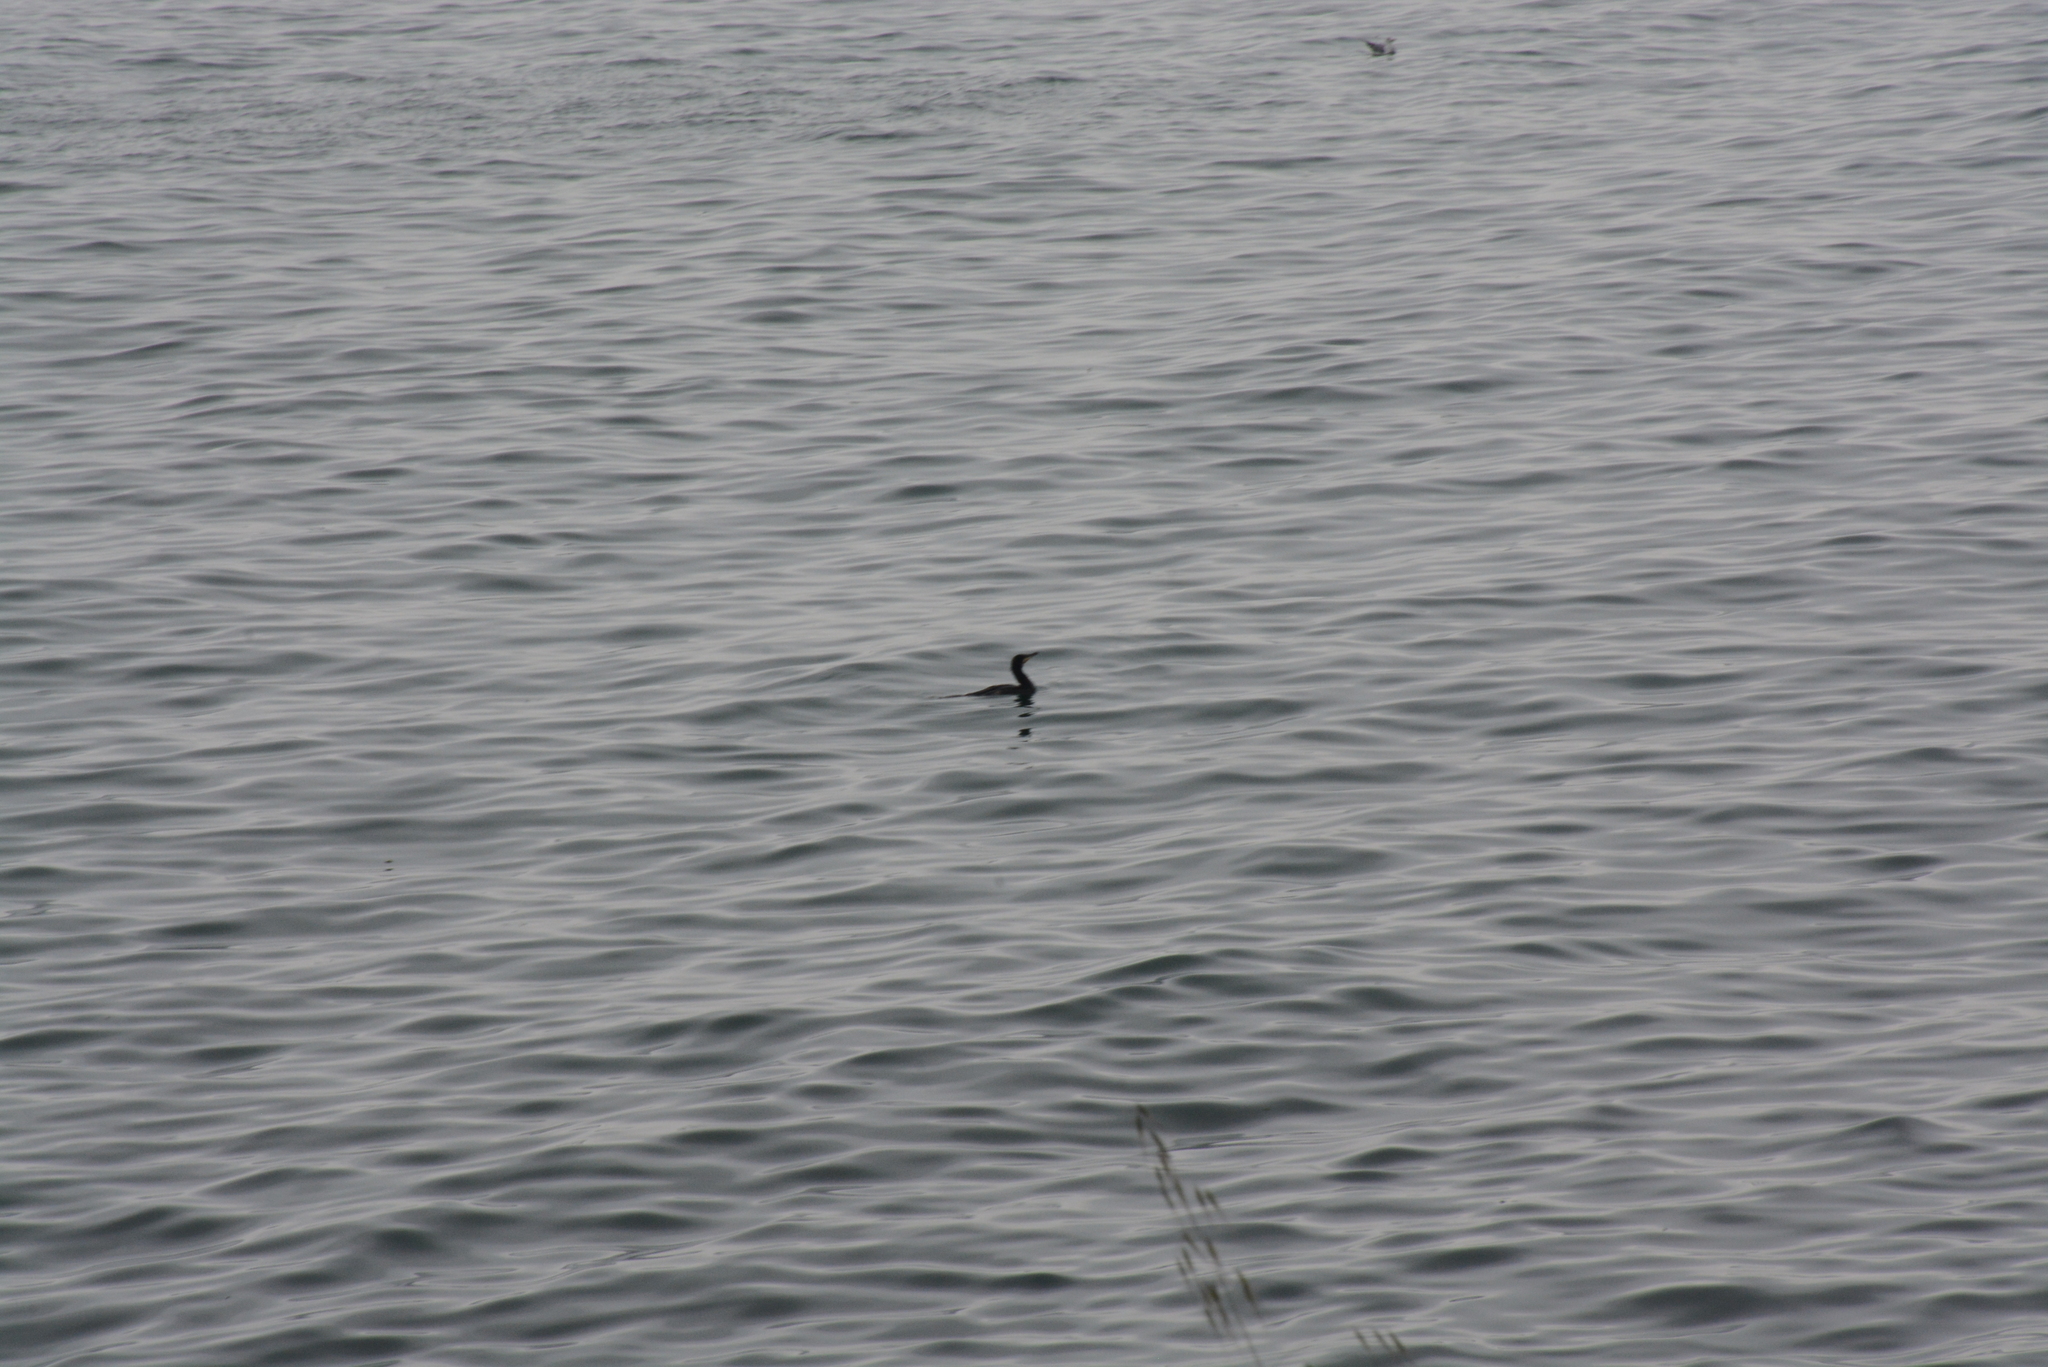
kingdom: Animalia
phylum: Chordata
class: Aves
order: Suliformes
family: Phalacrocoracidae
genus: Phalacrocorax
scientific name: Phalacrocorax aristotelis
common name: European shag
